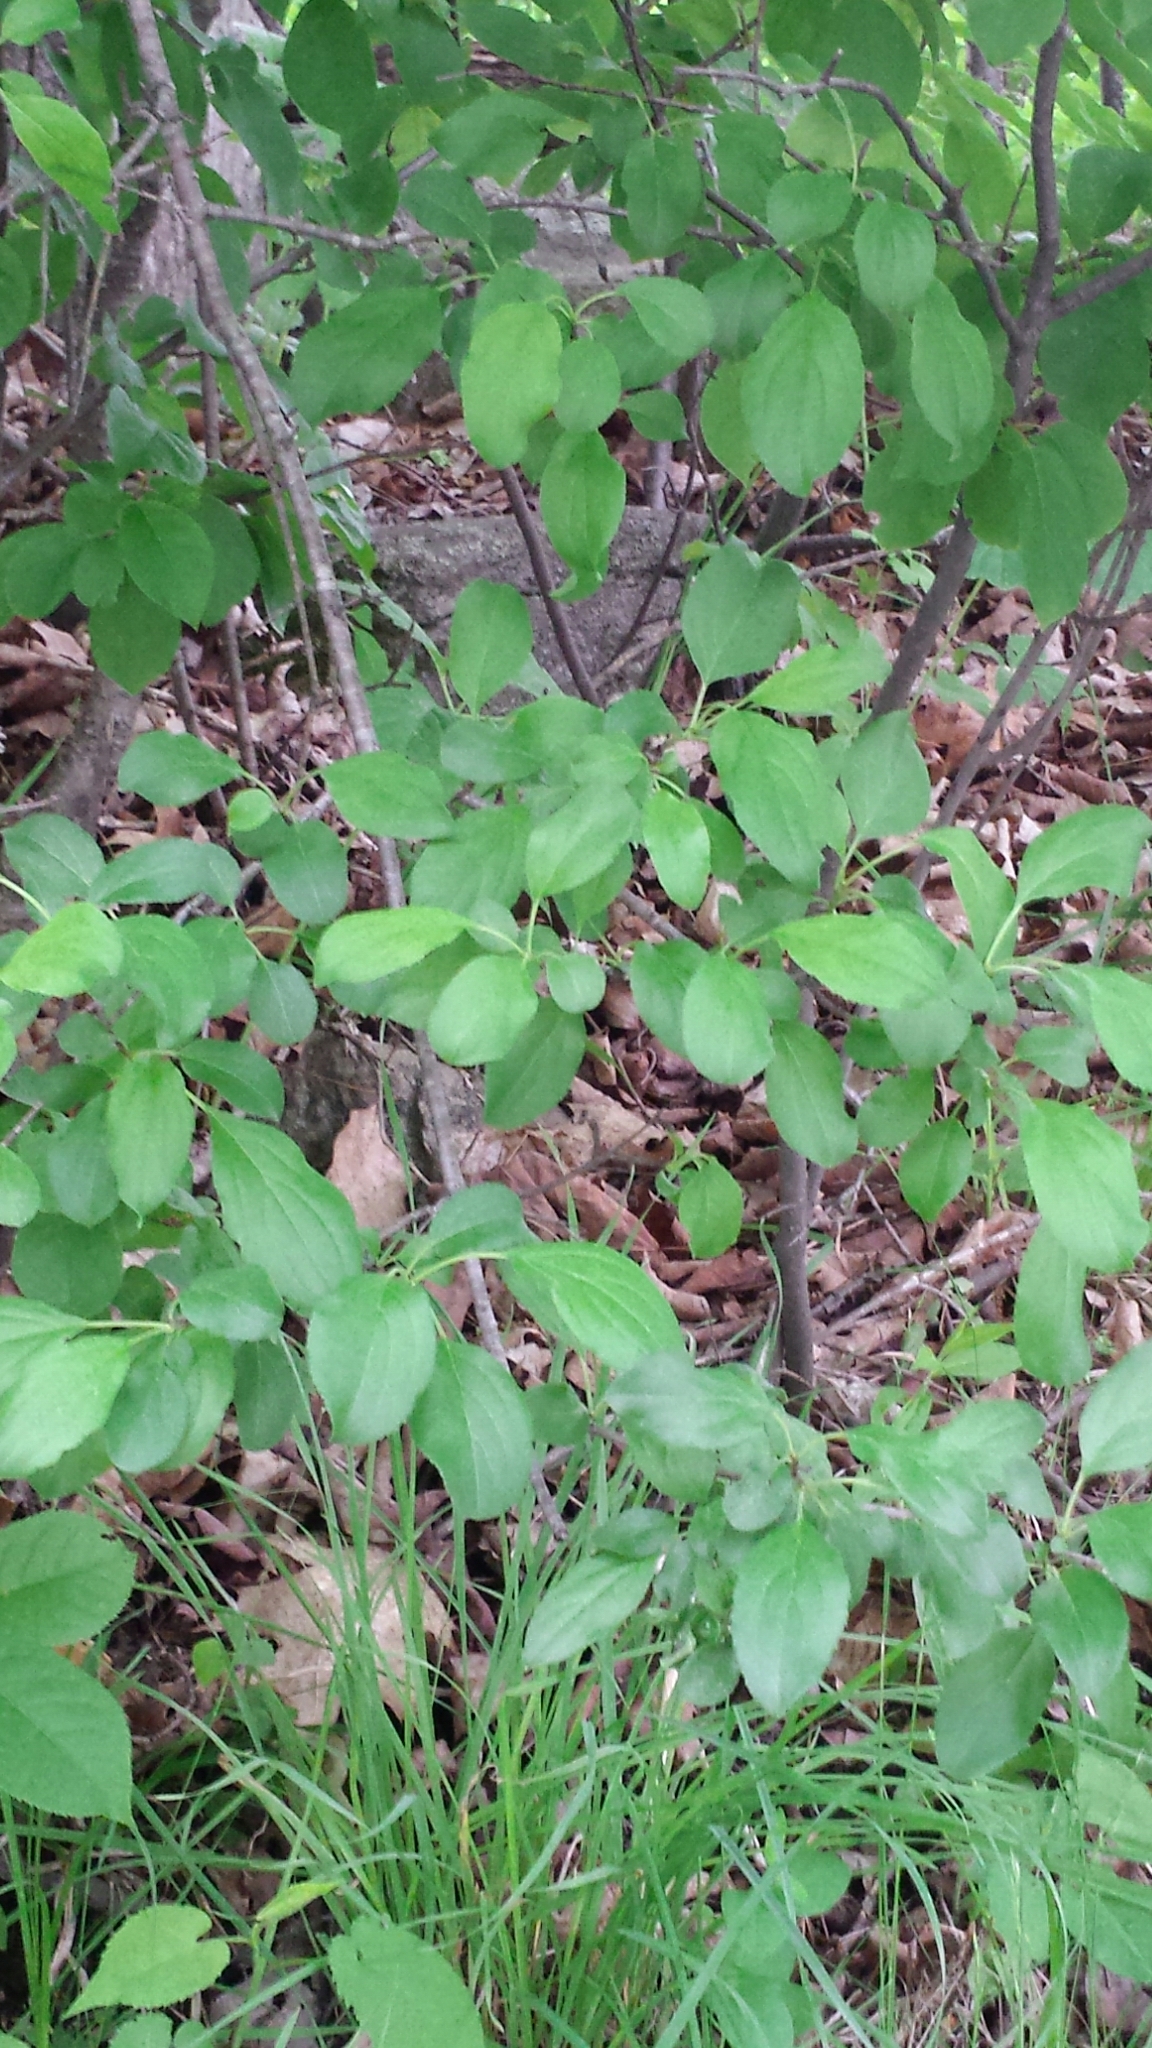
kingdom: Plantae
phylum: Tracheophyta
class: Magnoliopsida
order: Rosales
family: Rhamnaceae
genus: Rhamnus
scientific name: Rhamnus cathartica
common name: Common buckthorn
